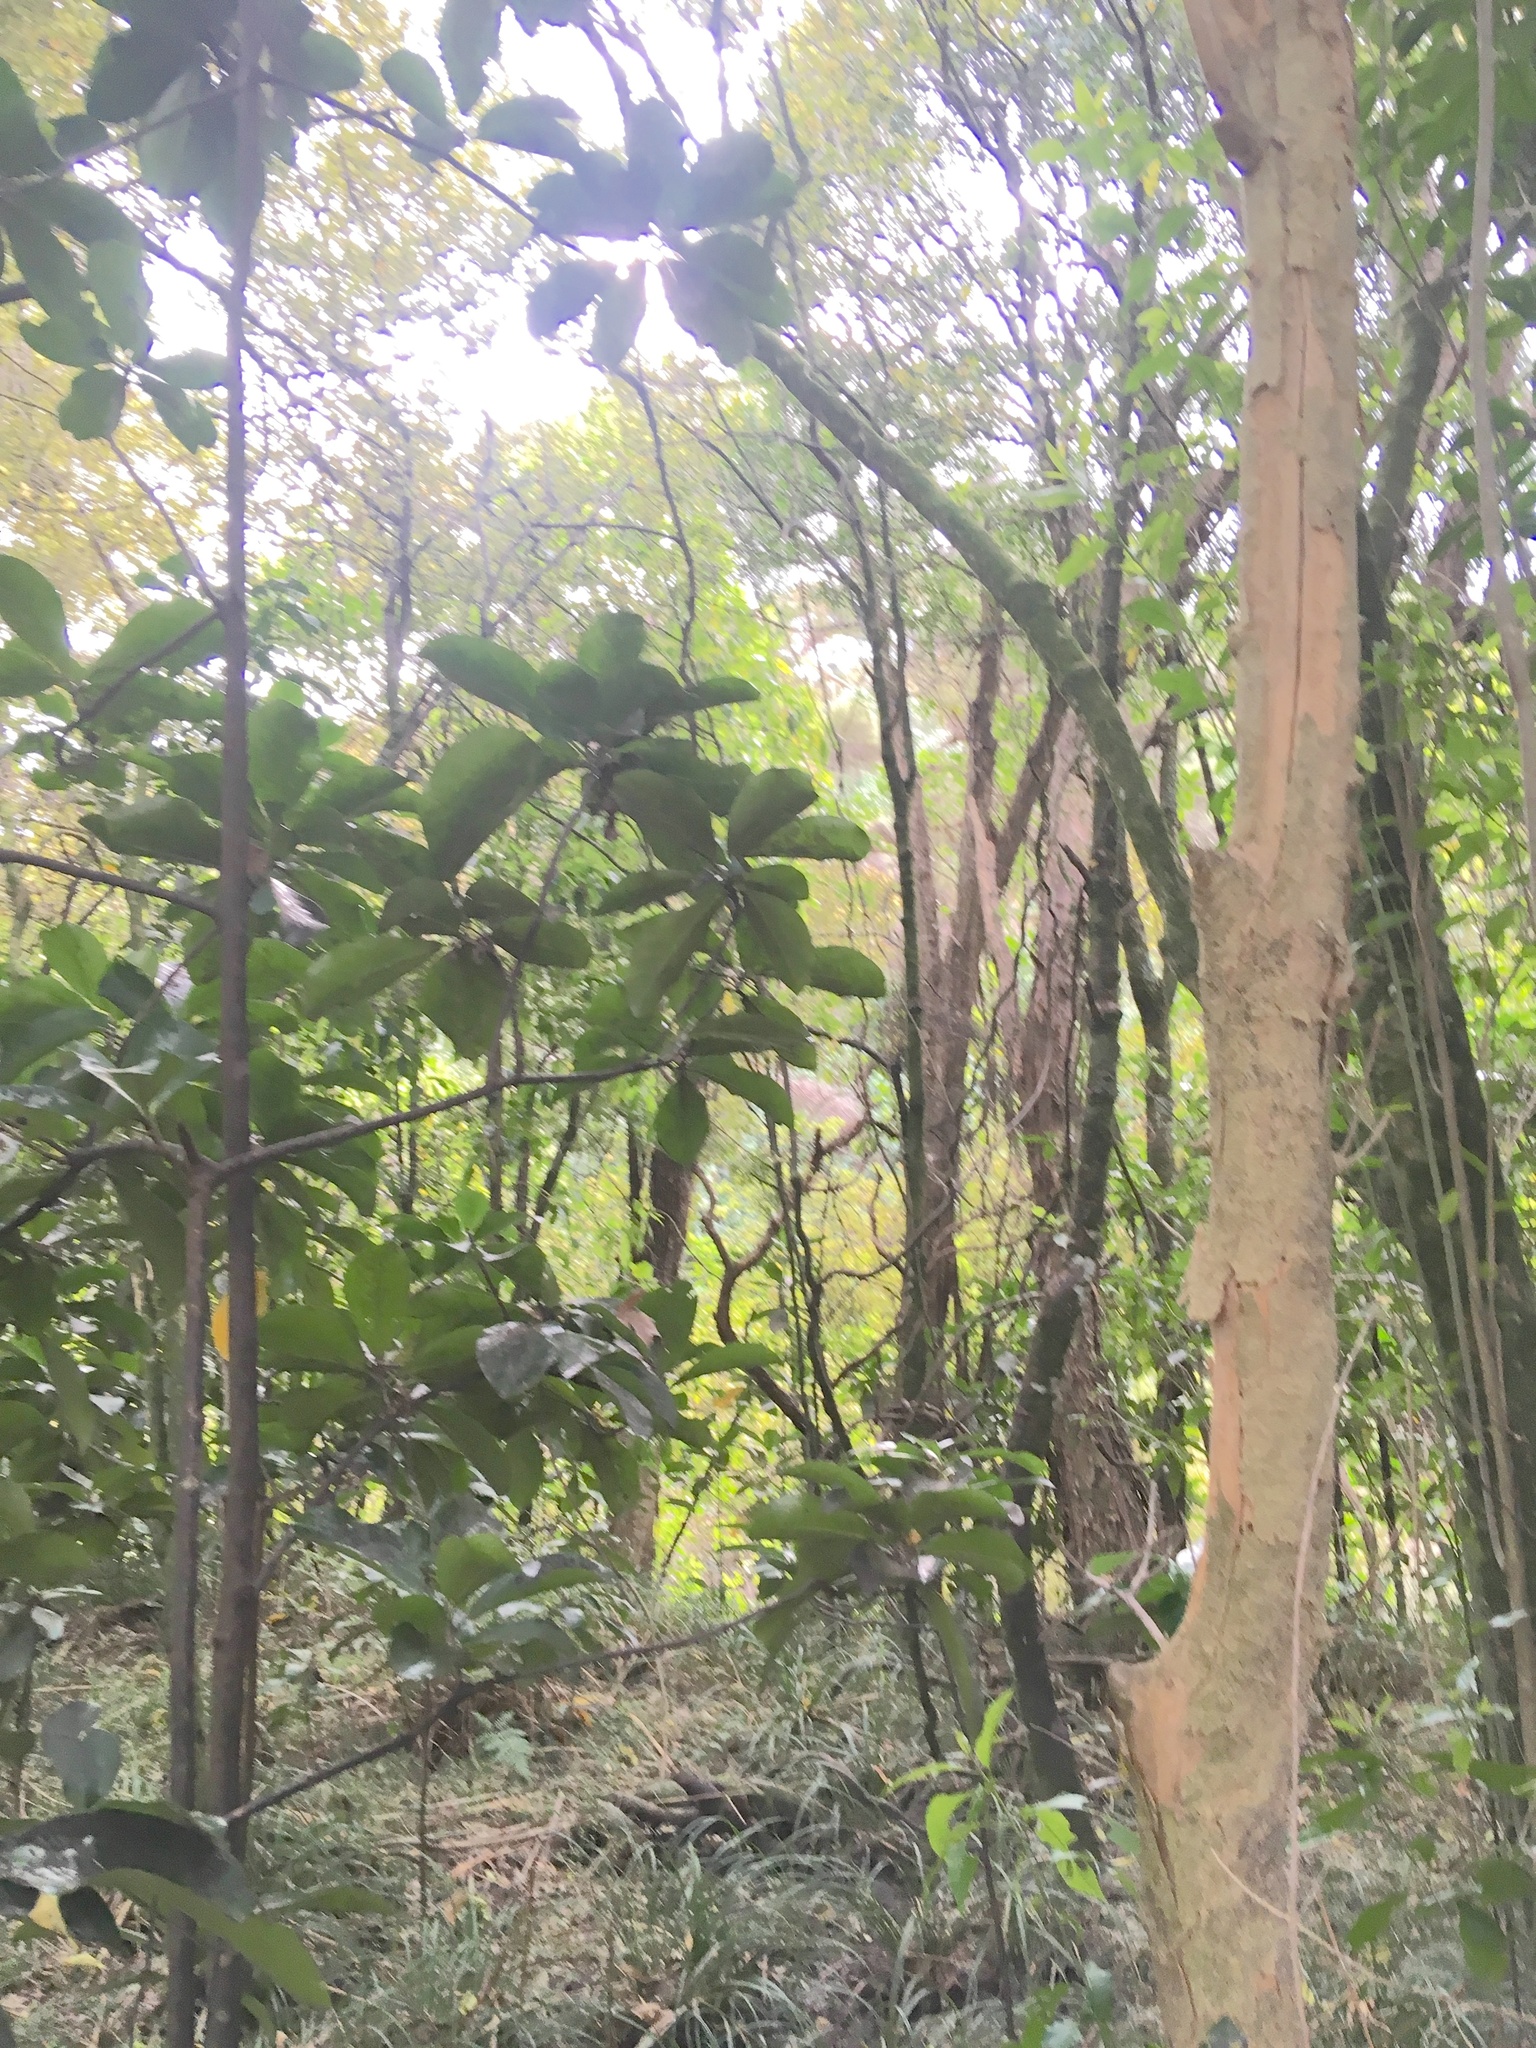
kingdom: Plantae
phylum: Tracheophyta
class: Magnoliopsida
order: Malpighiales
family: Passifloraceae
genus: Passiflora
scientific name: Passiflora tetrandra
